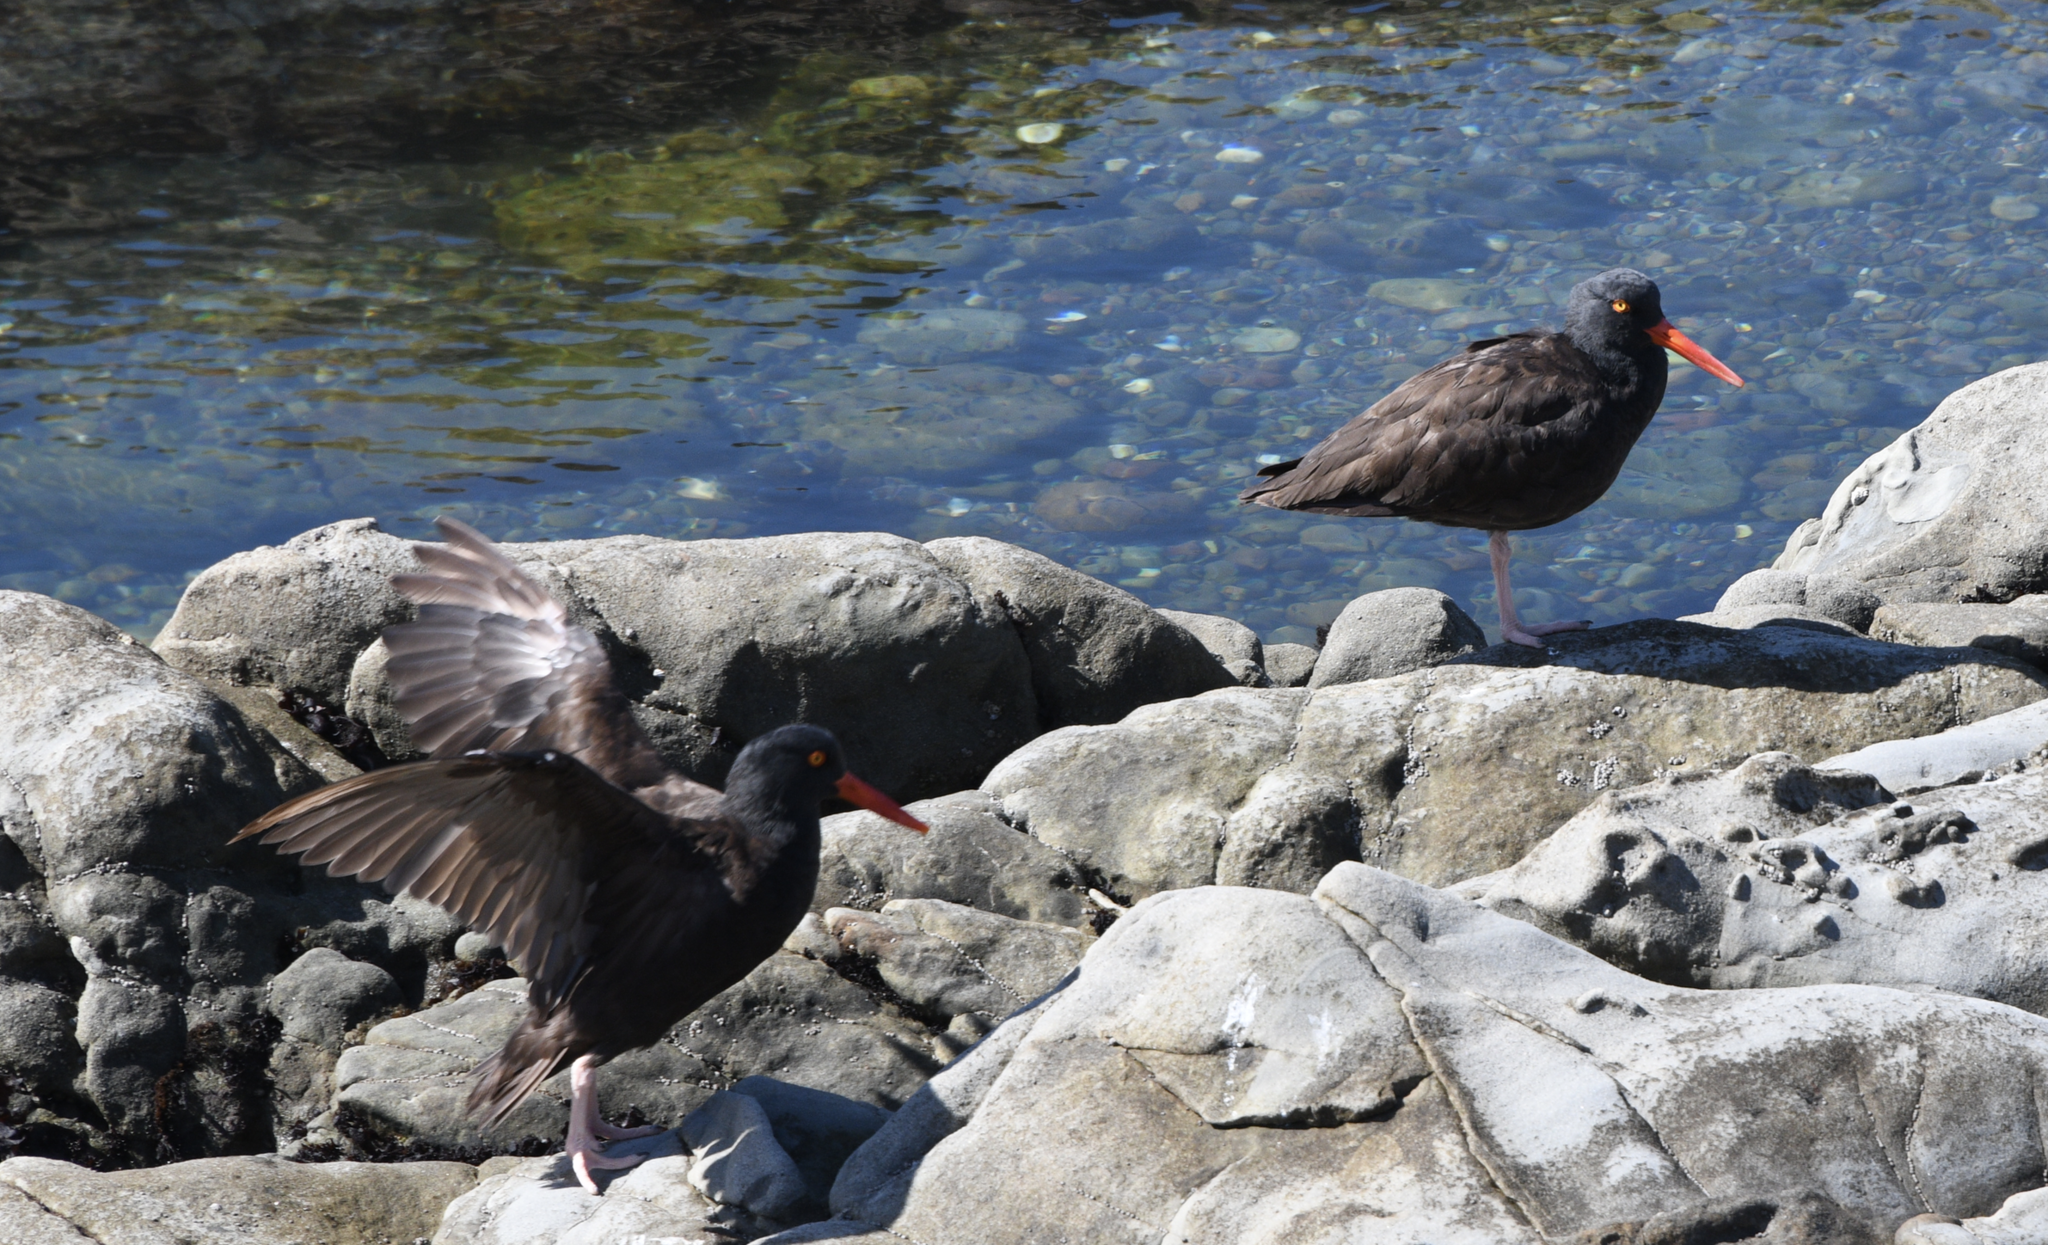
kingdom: Animalia
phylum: Chordata
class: Aves
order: Charadriiformes
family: Haematopodidae
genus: Haematopus
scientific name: Haematopus bachmani
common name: Black oystercatcher
